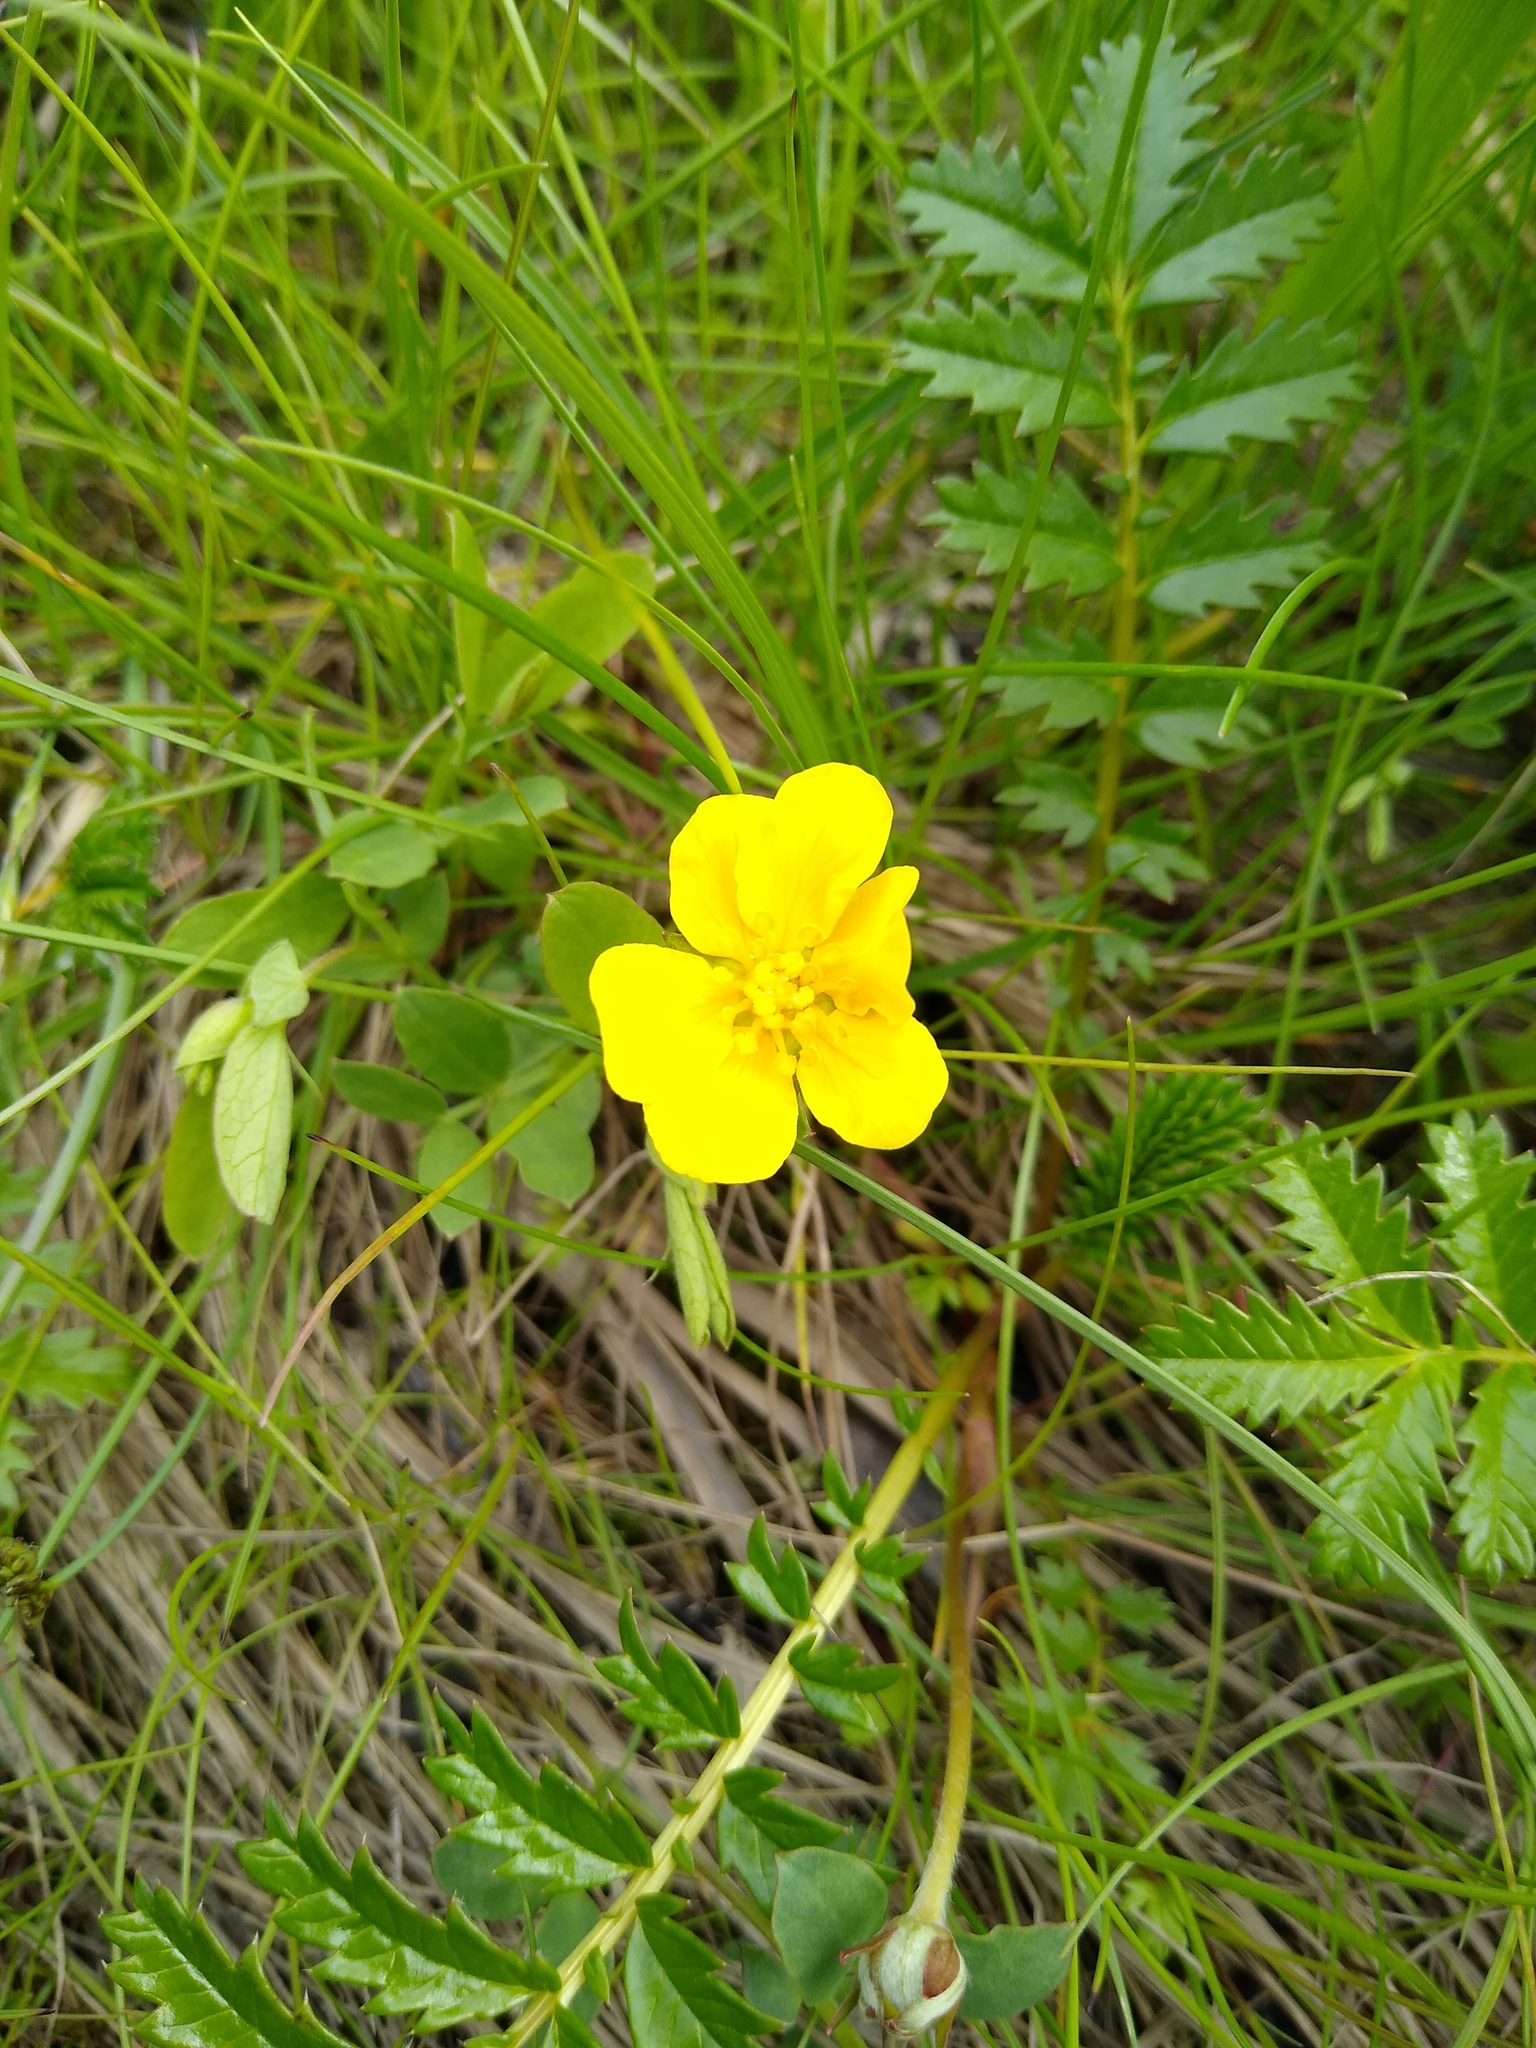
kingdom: Plantae
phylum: Tracheophyta
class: Magnoliopsida
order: Rosales
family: Rosaceae
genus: Argentina
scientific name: Argentina anserina
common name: Common silverweed
